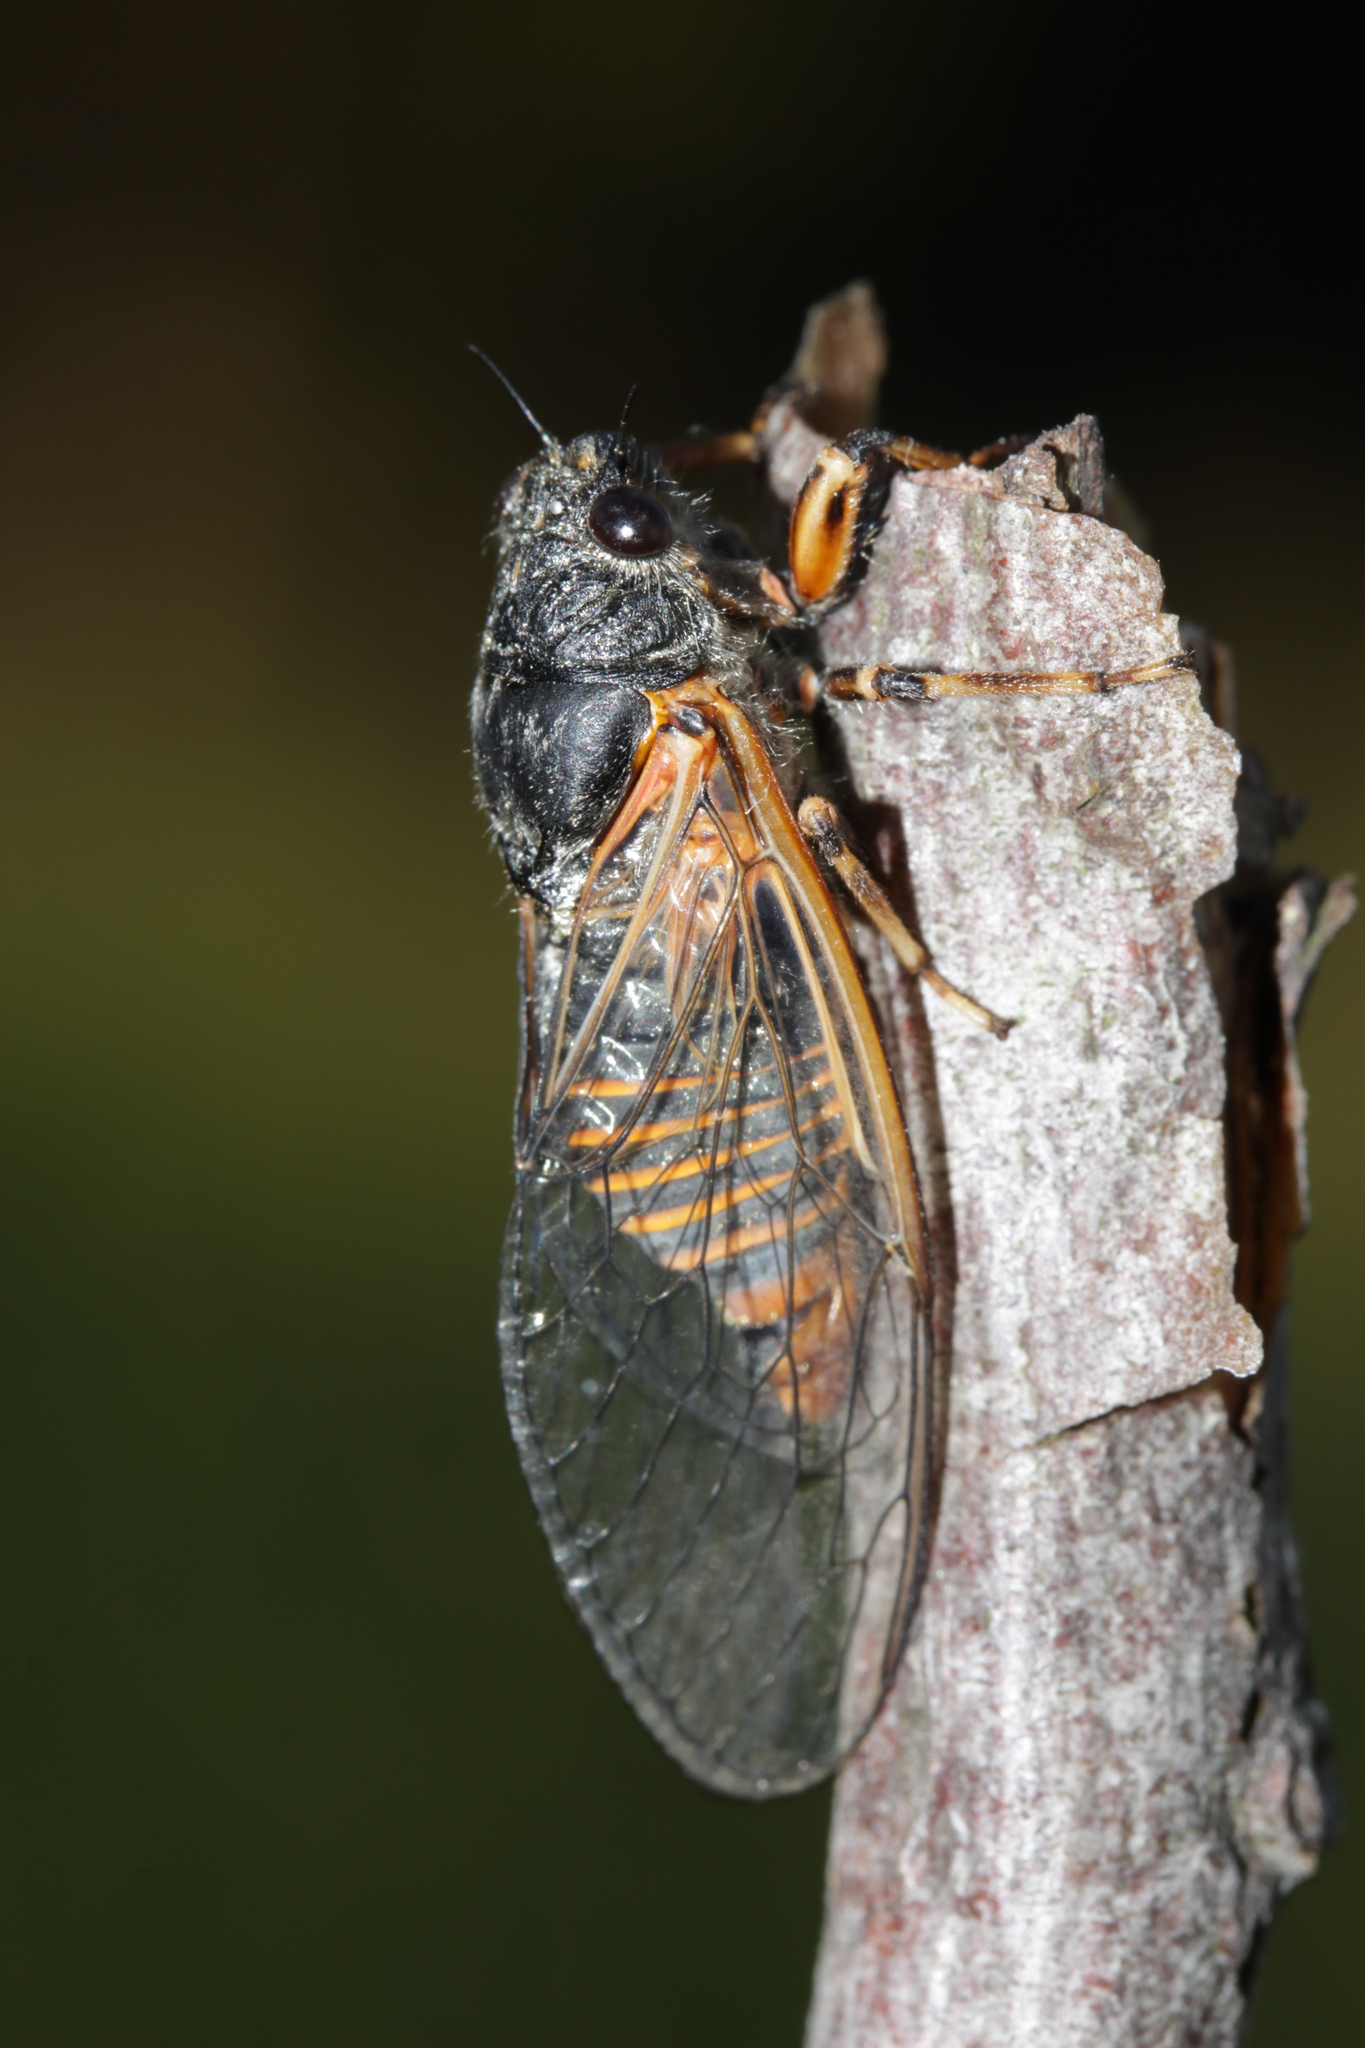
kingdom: Animalia
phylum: Arthropoda
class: Insecta
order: Hemiptera
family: Cicadidae
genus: Cicadetta
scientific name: Cicadetta cantilatrix
